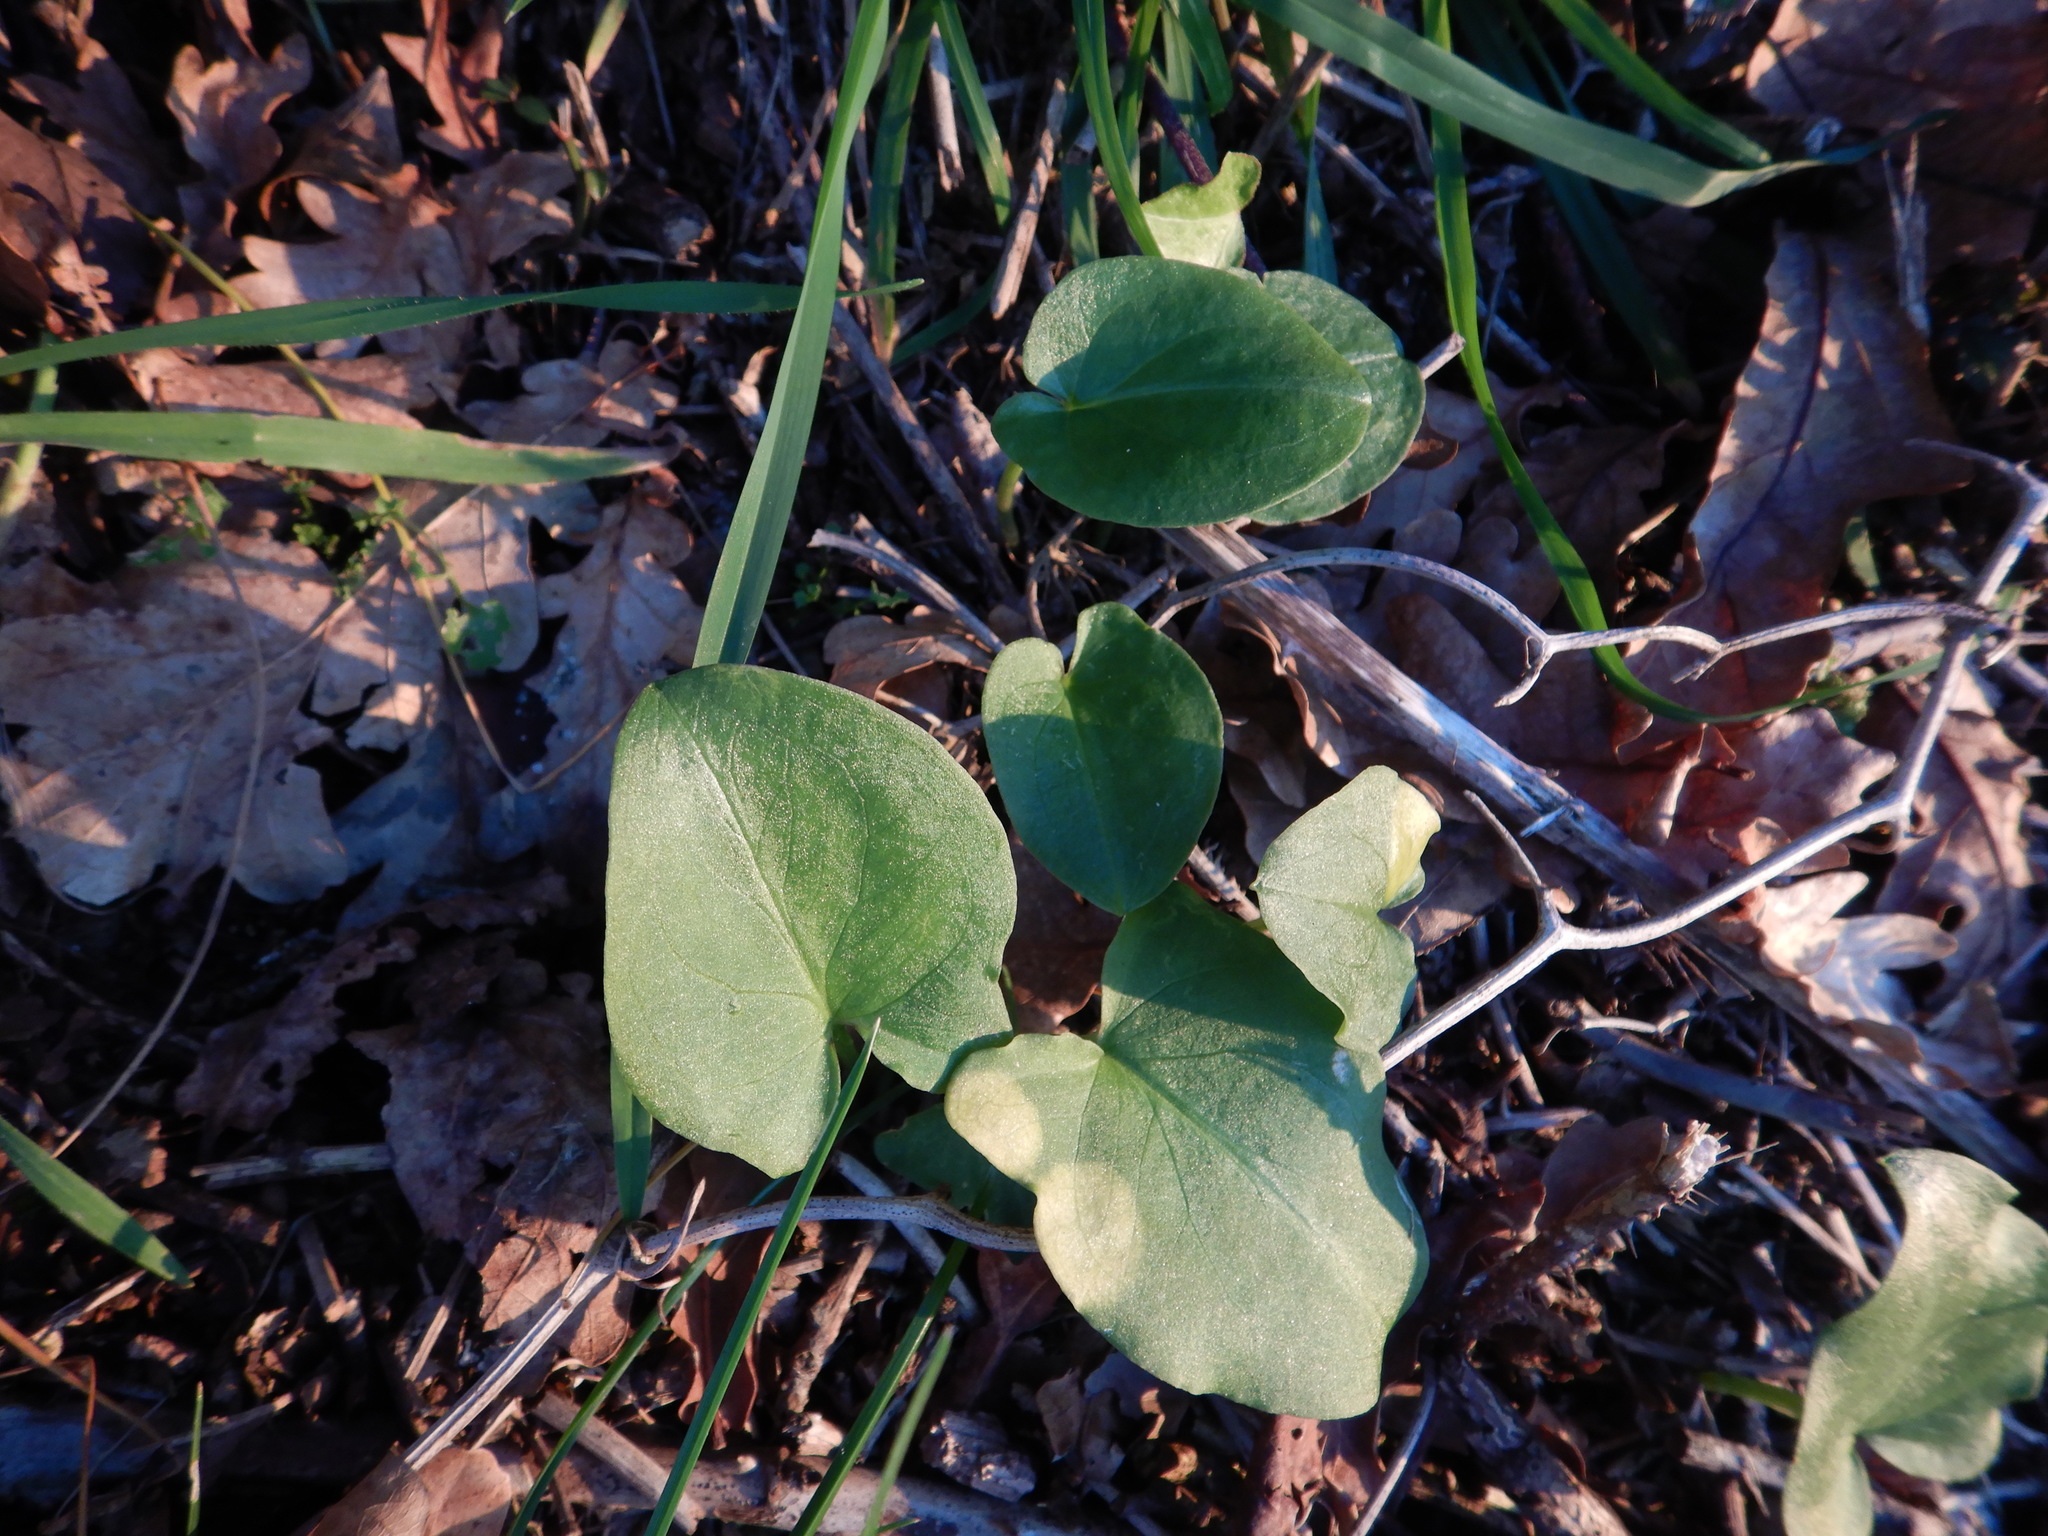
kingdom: Plantae
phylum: Tracheophyta
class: Liliopsida
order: Alismatales
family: Araceae
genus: Arisarum
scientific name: Arisarum simorrhinum
